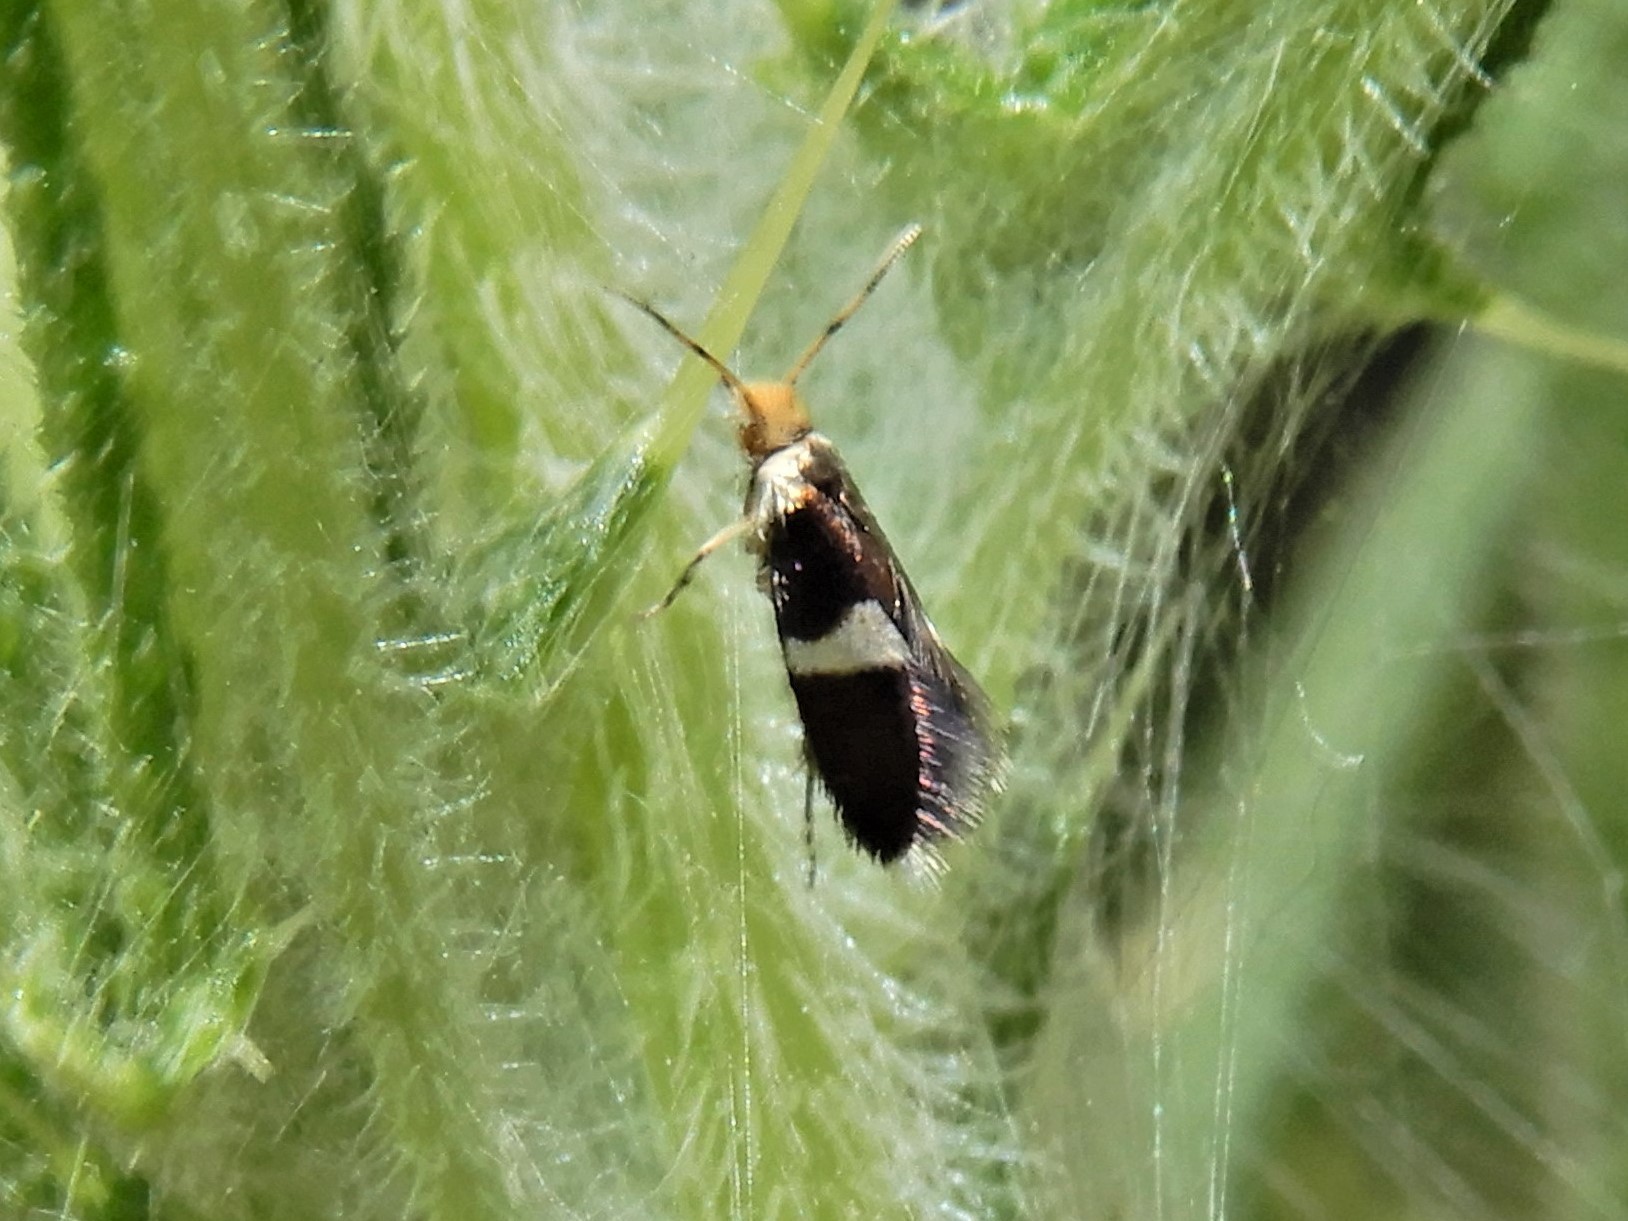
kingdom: Animalia
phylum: Arthropoda
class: Insecta
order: Lepidoptera
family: Micropterigidae
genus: Zealandopterix
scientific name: Zealandopterix zonodoxa
